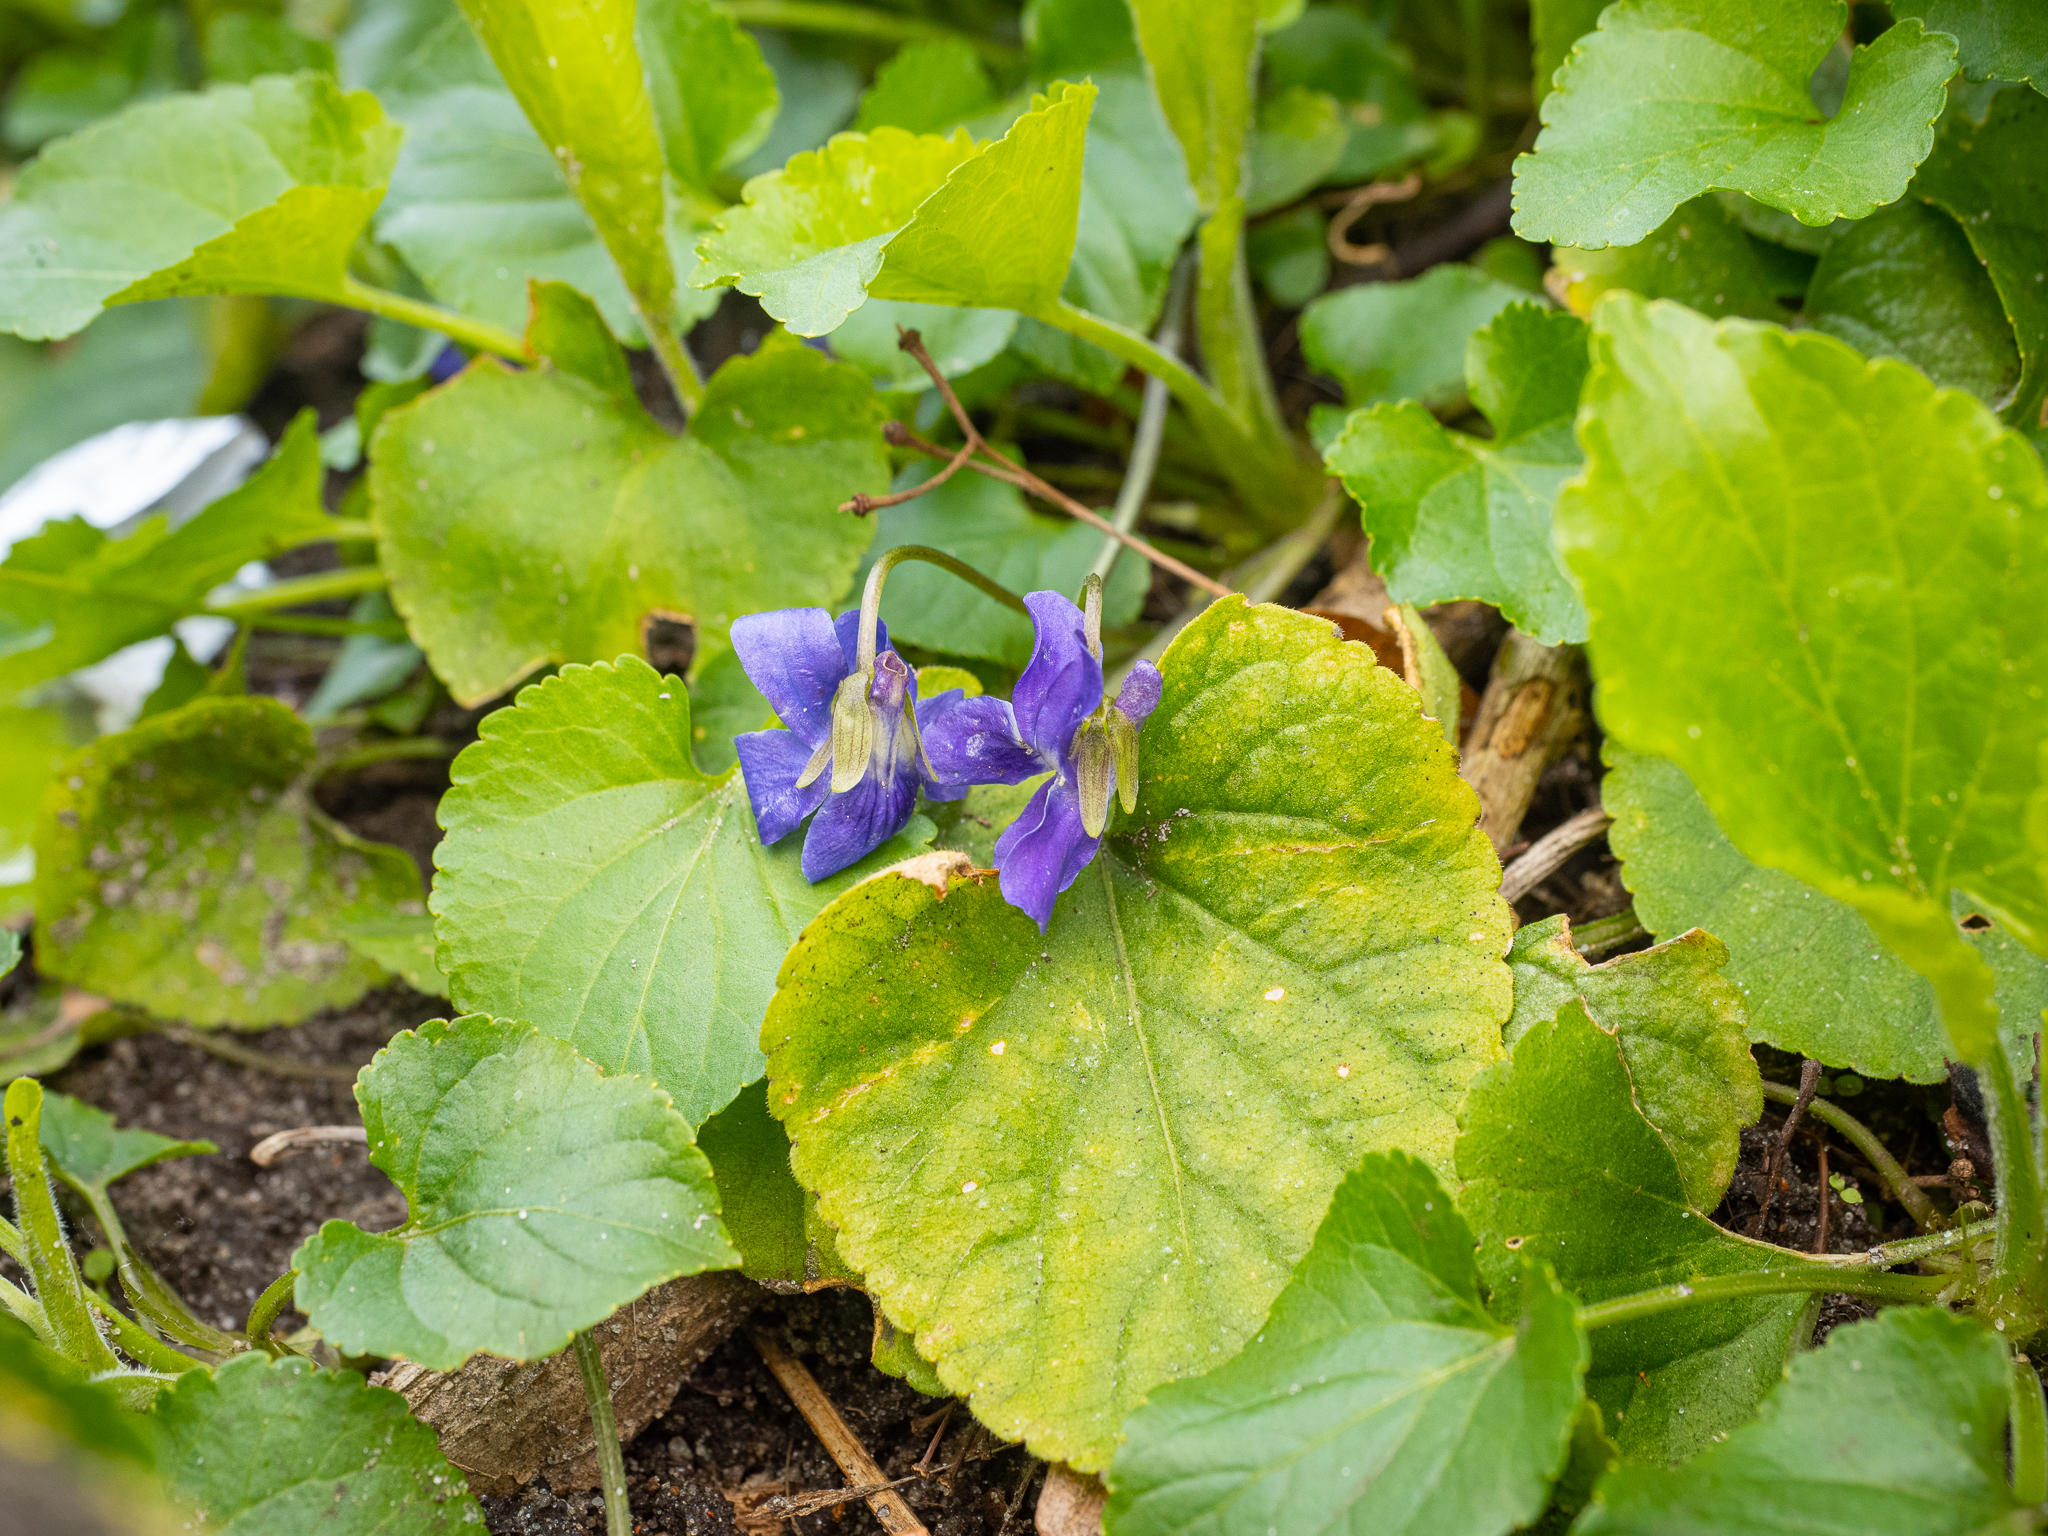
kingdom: Plantae
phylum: Tracheophyta
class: Magnoliopsida
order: Malpighiales
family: Violaceae
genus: Viola
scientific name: Viola odorata
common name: Sweet violet
